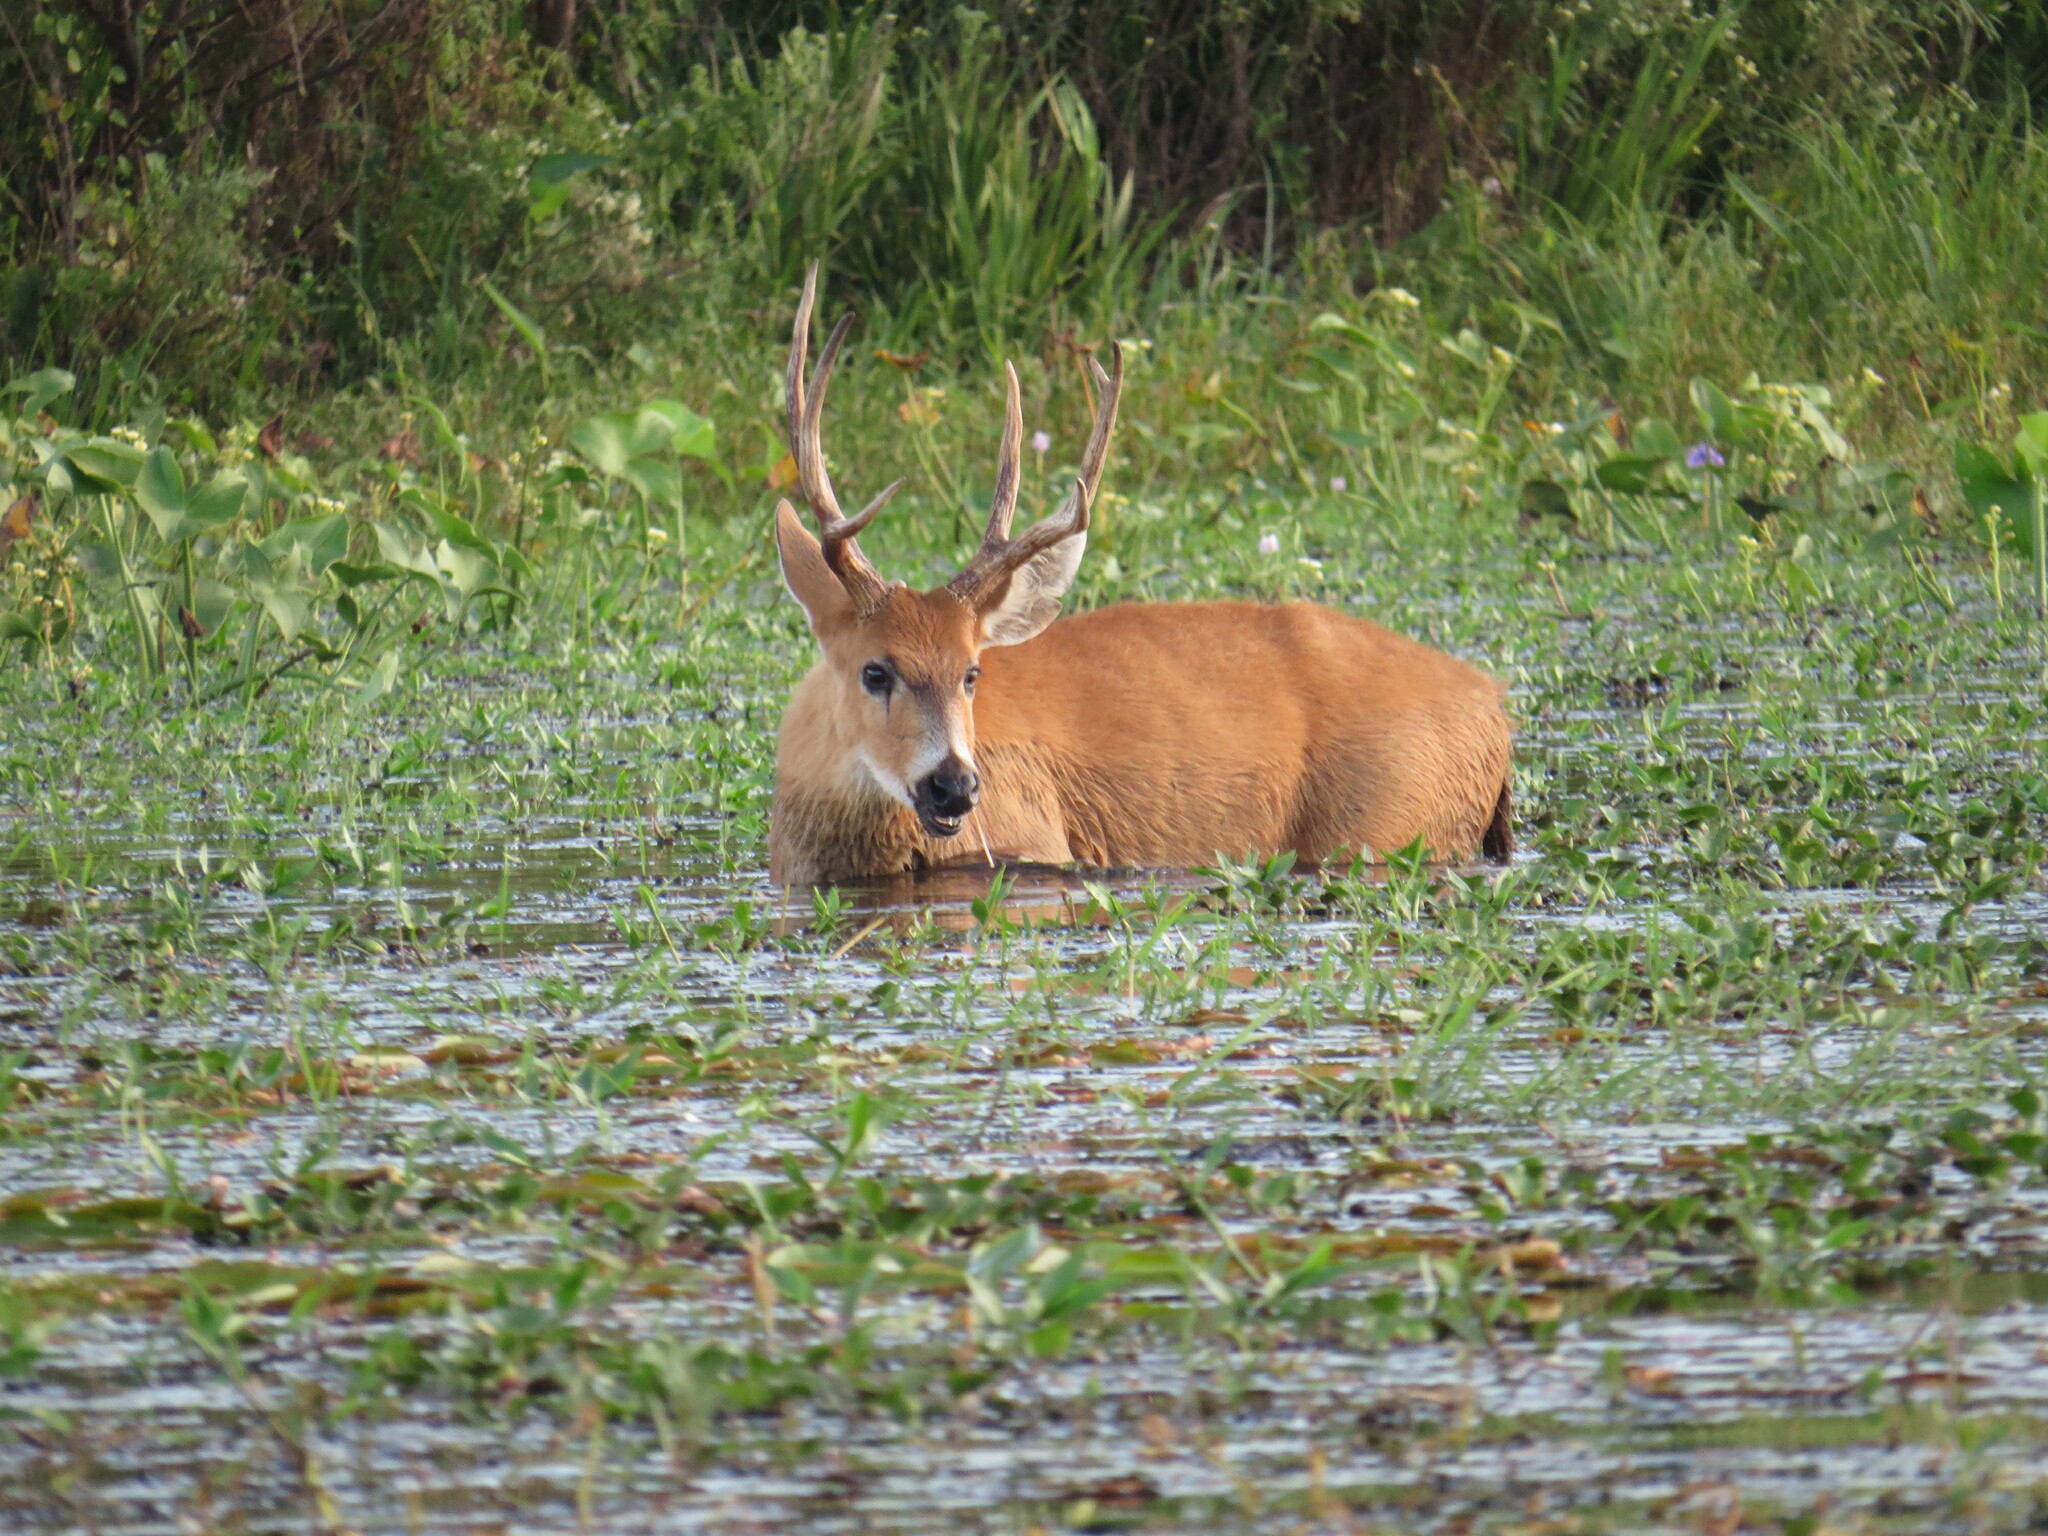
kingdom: Animalia
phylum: Chordata
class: Mammalia
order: Artiodactyla
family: Cervidae
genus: Blastocerus
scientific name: Blastocerus dichotomus
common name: Marsh deer
